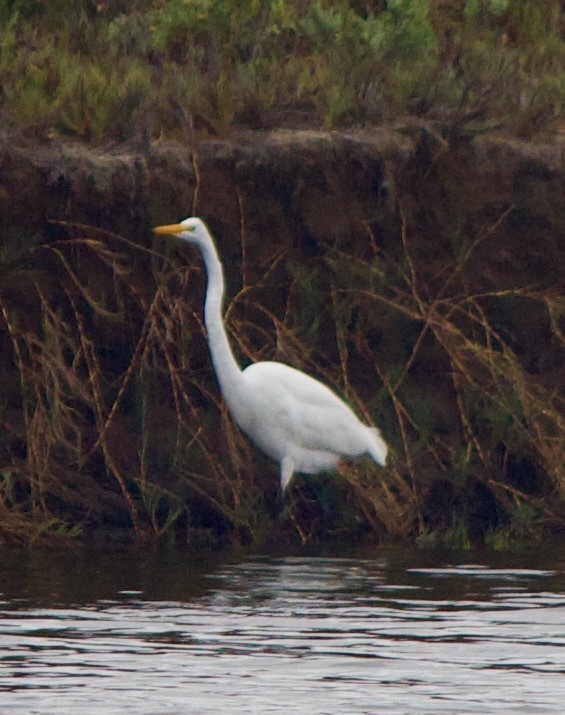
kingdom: Animalia
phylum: Chordata
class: Aves
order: Pelecaniformes
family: Ardeidae
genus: Ardea
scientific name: Ardea alba
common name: Great egret
